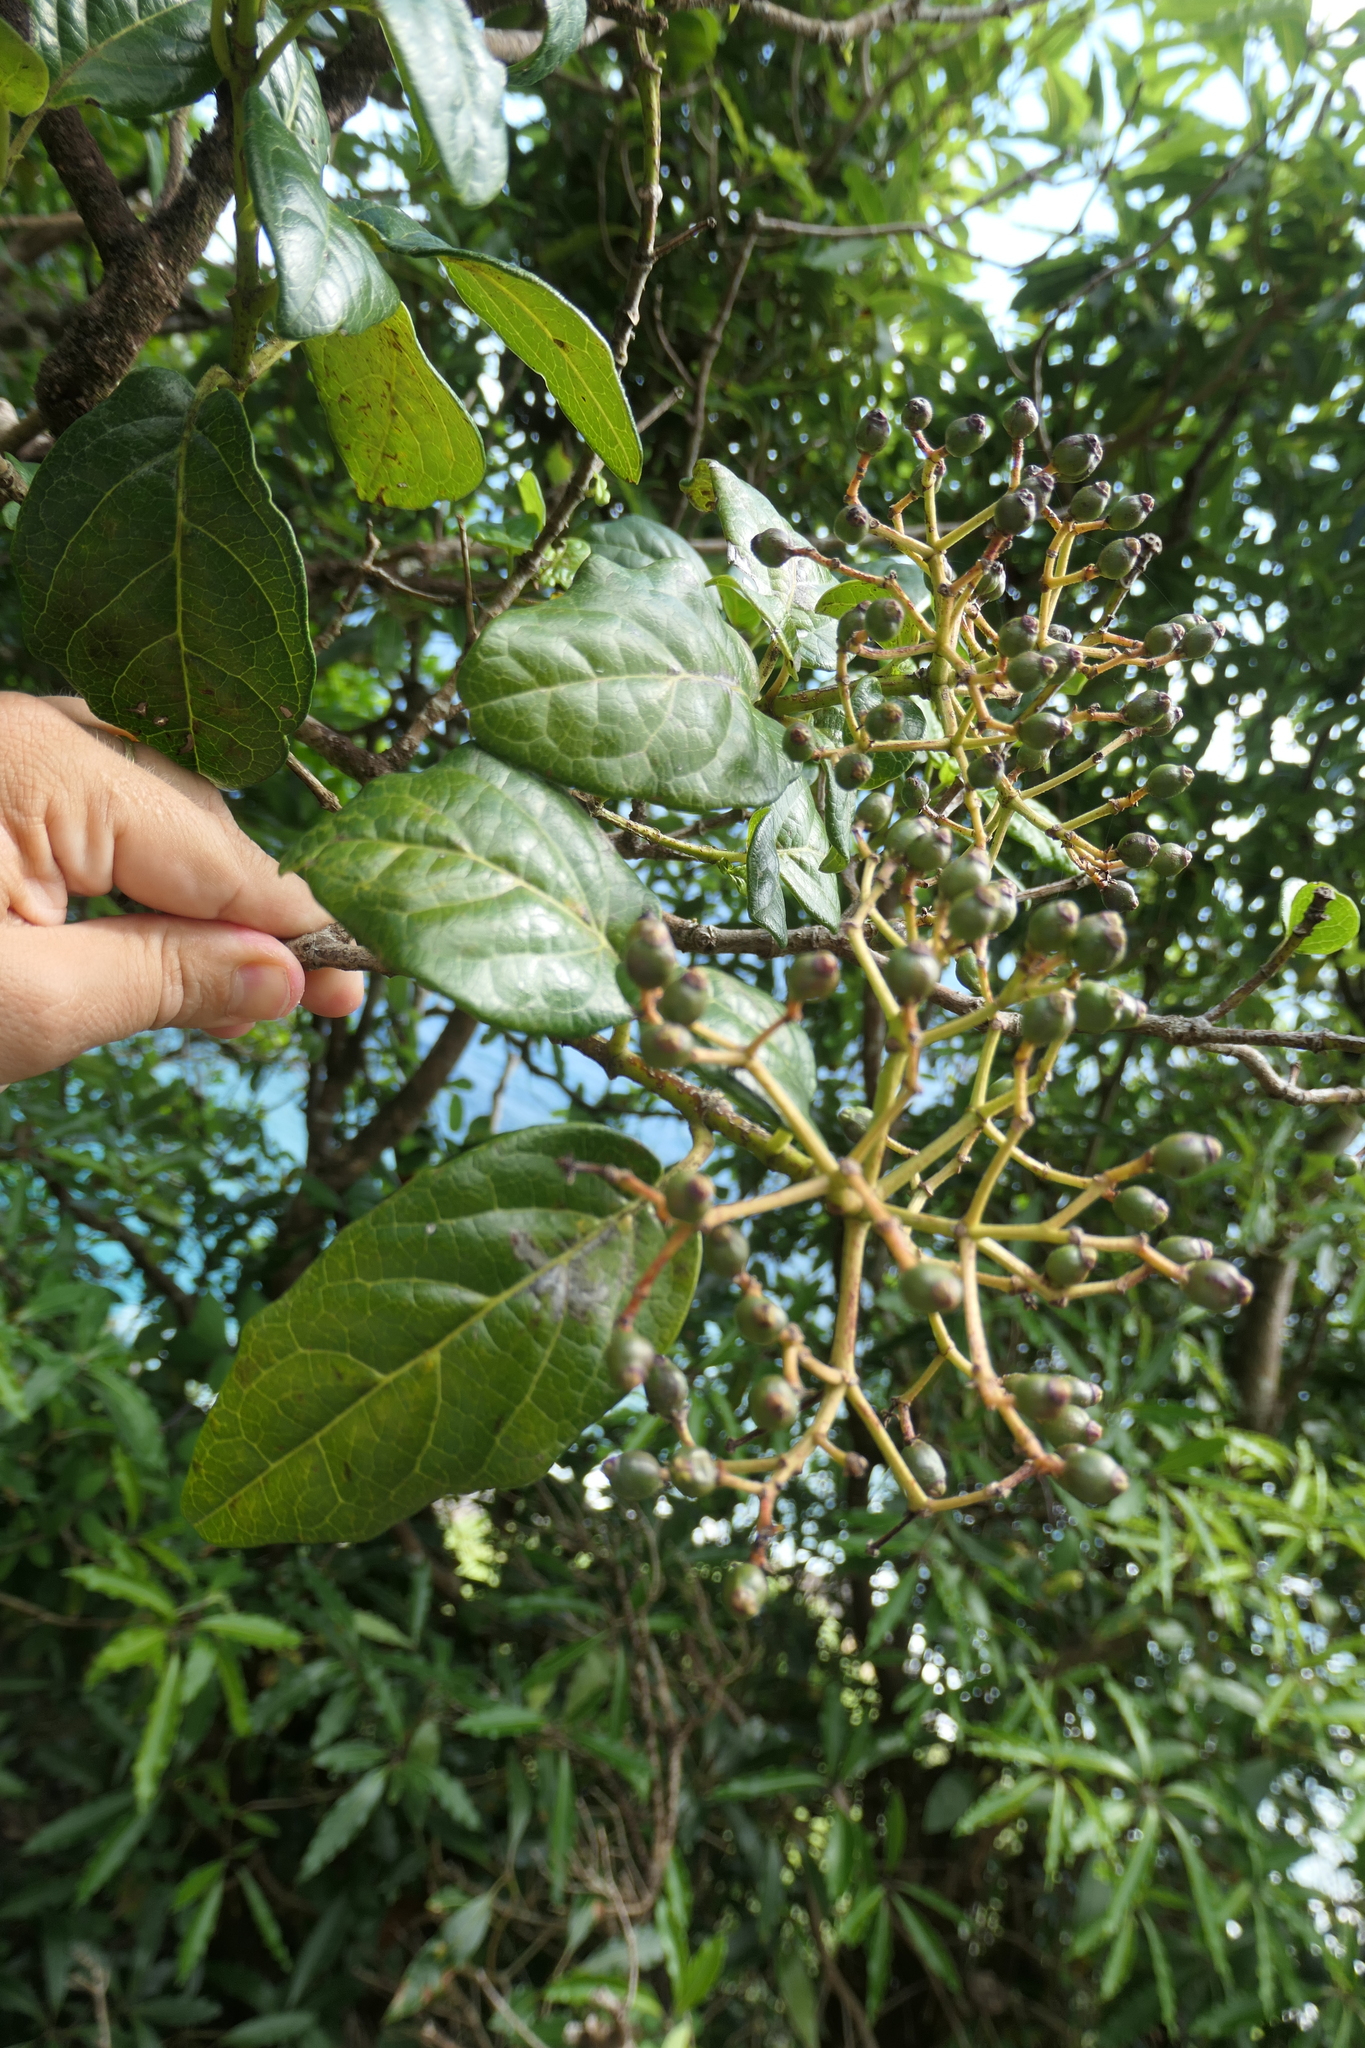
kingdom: Plantae
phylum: Tracheophyta
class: Magnoliopsida
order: Dipsacales
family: Viburnaceae
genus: Viburnum
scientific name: Viburnum treleasei
